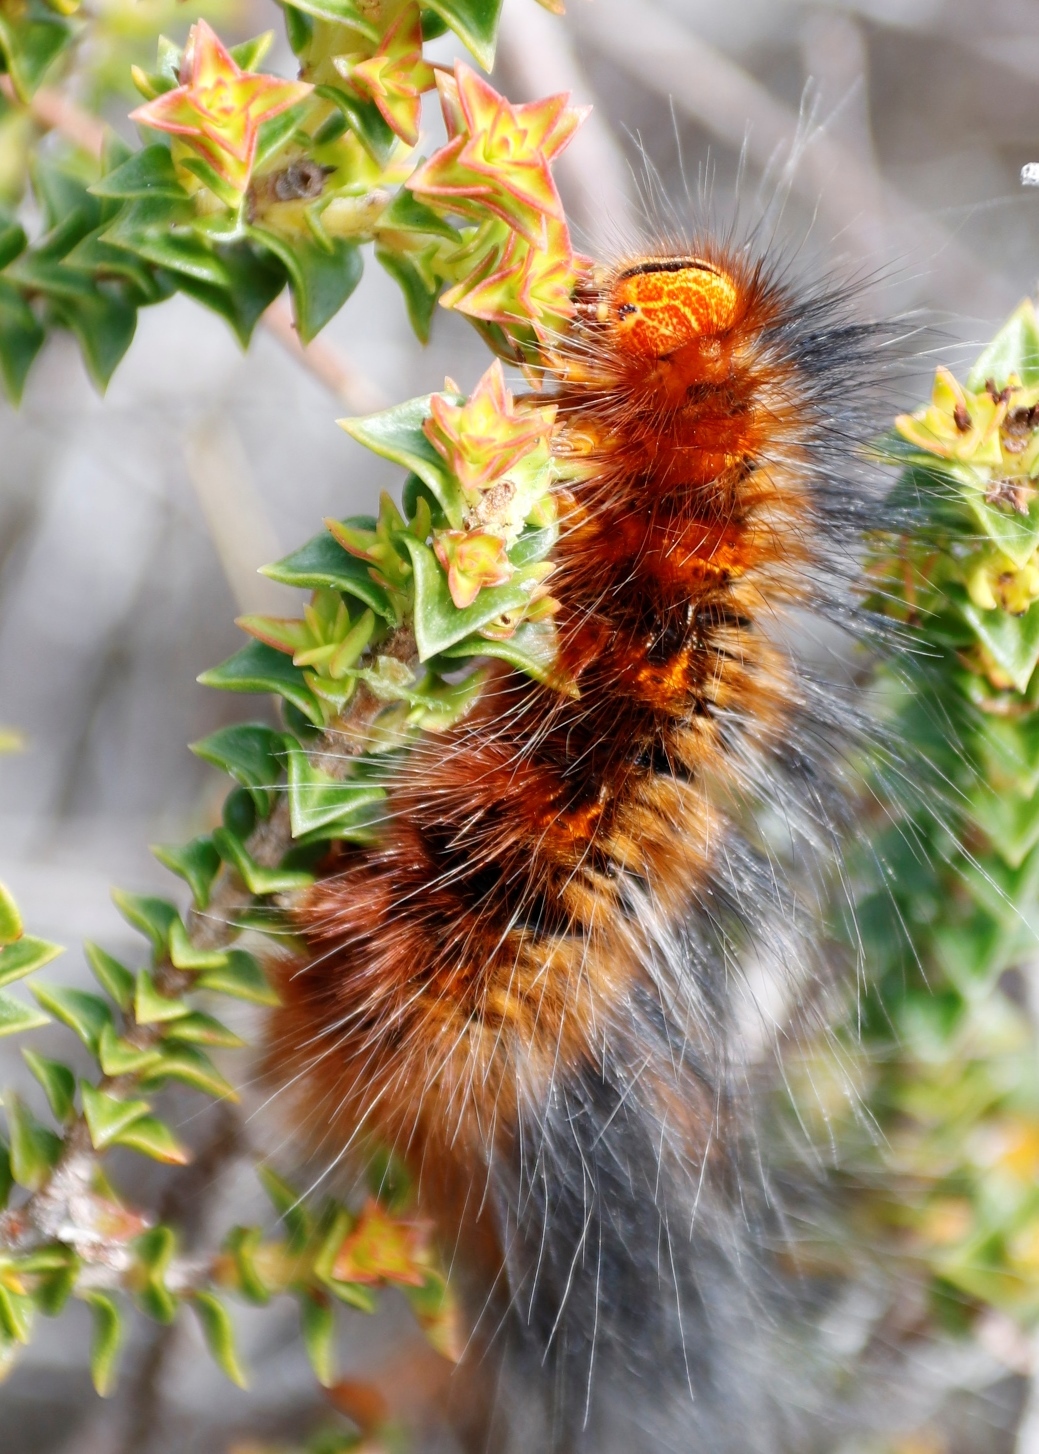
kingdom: Plantae
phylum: Tracheophyta
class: Magnoliopsida
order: Myrtales
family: Penaeaceae
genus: Penaea
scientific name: Penaea mucronata
